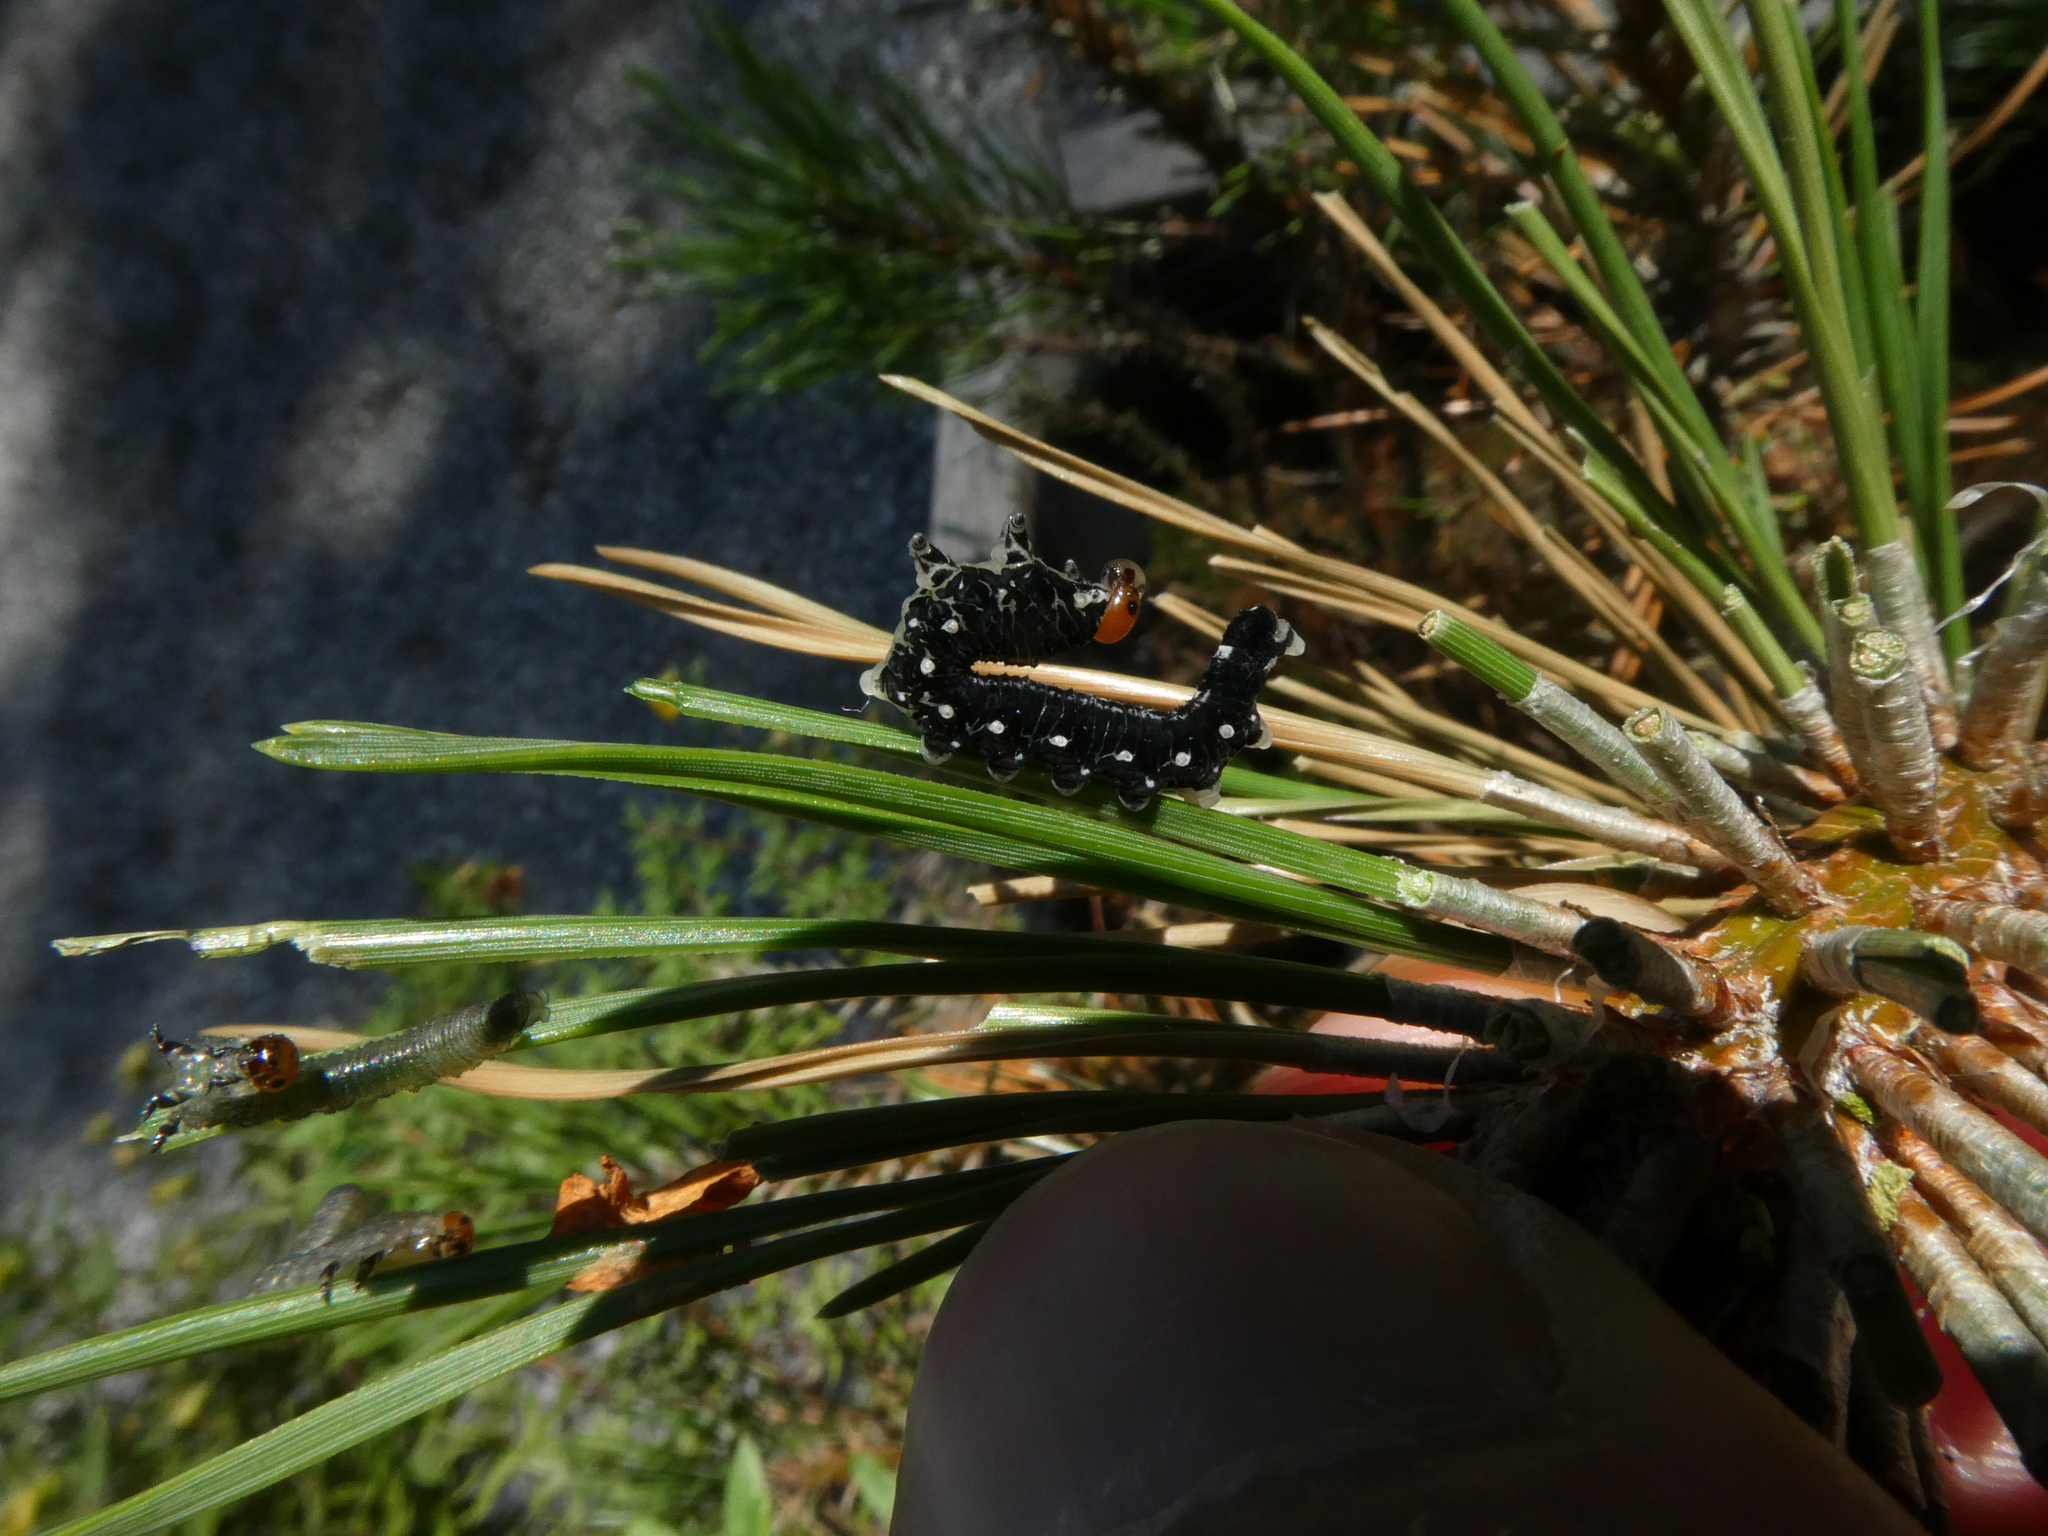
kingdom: Animalia
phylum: Arthropoda
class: Insecta
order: Hymenoptera
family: Diprionidae
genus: Gilpinia
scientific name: Gilpinia socia
